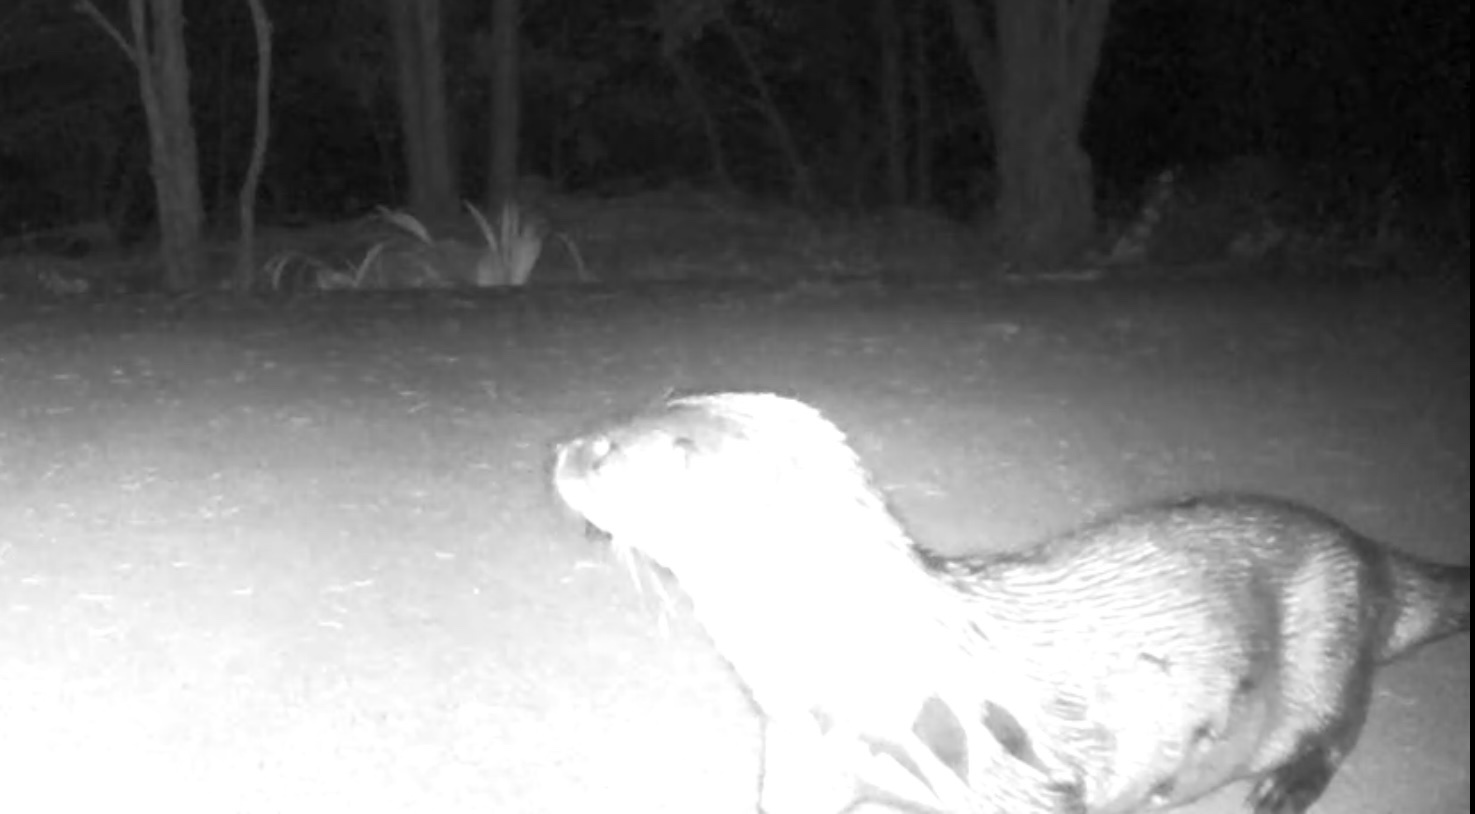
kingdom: Animalia
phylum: Chordata
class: Mammalia
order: Carnivora
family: Mustelidae
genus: Lontra
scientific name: Lontra canadensis
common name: North american river otter
